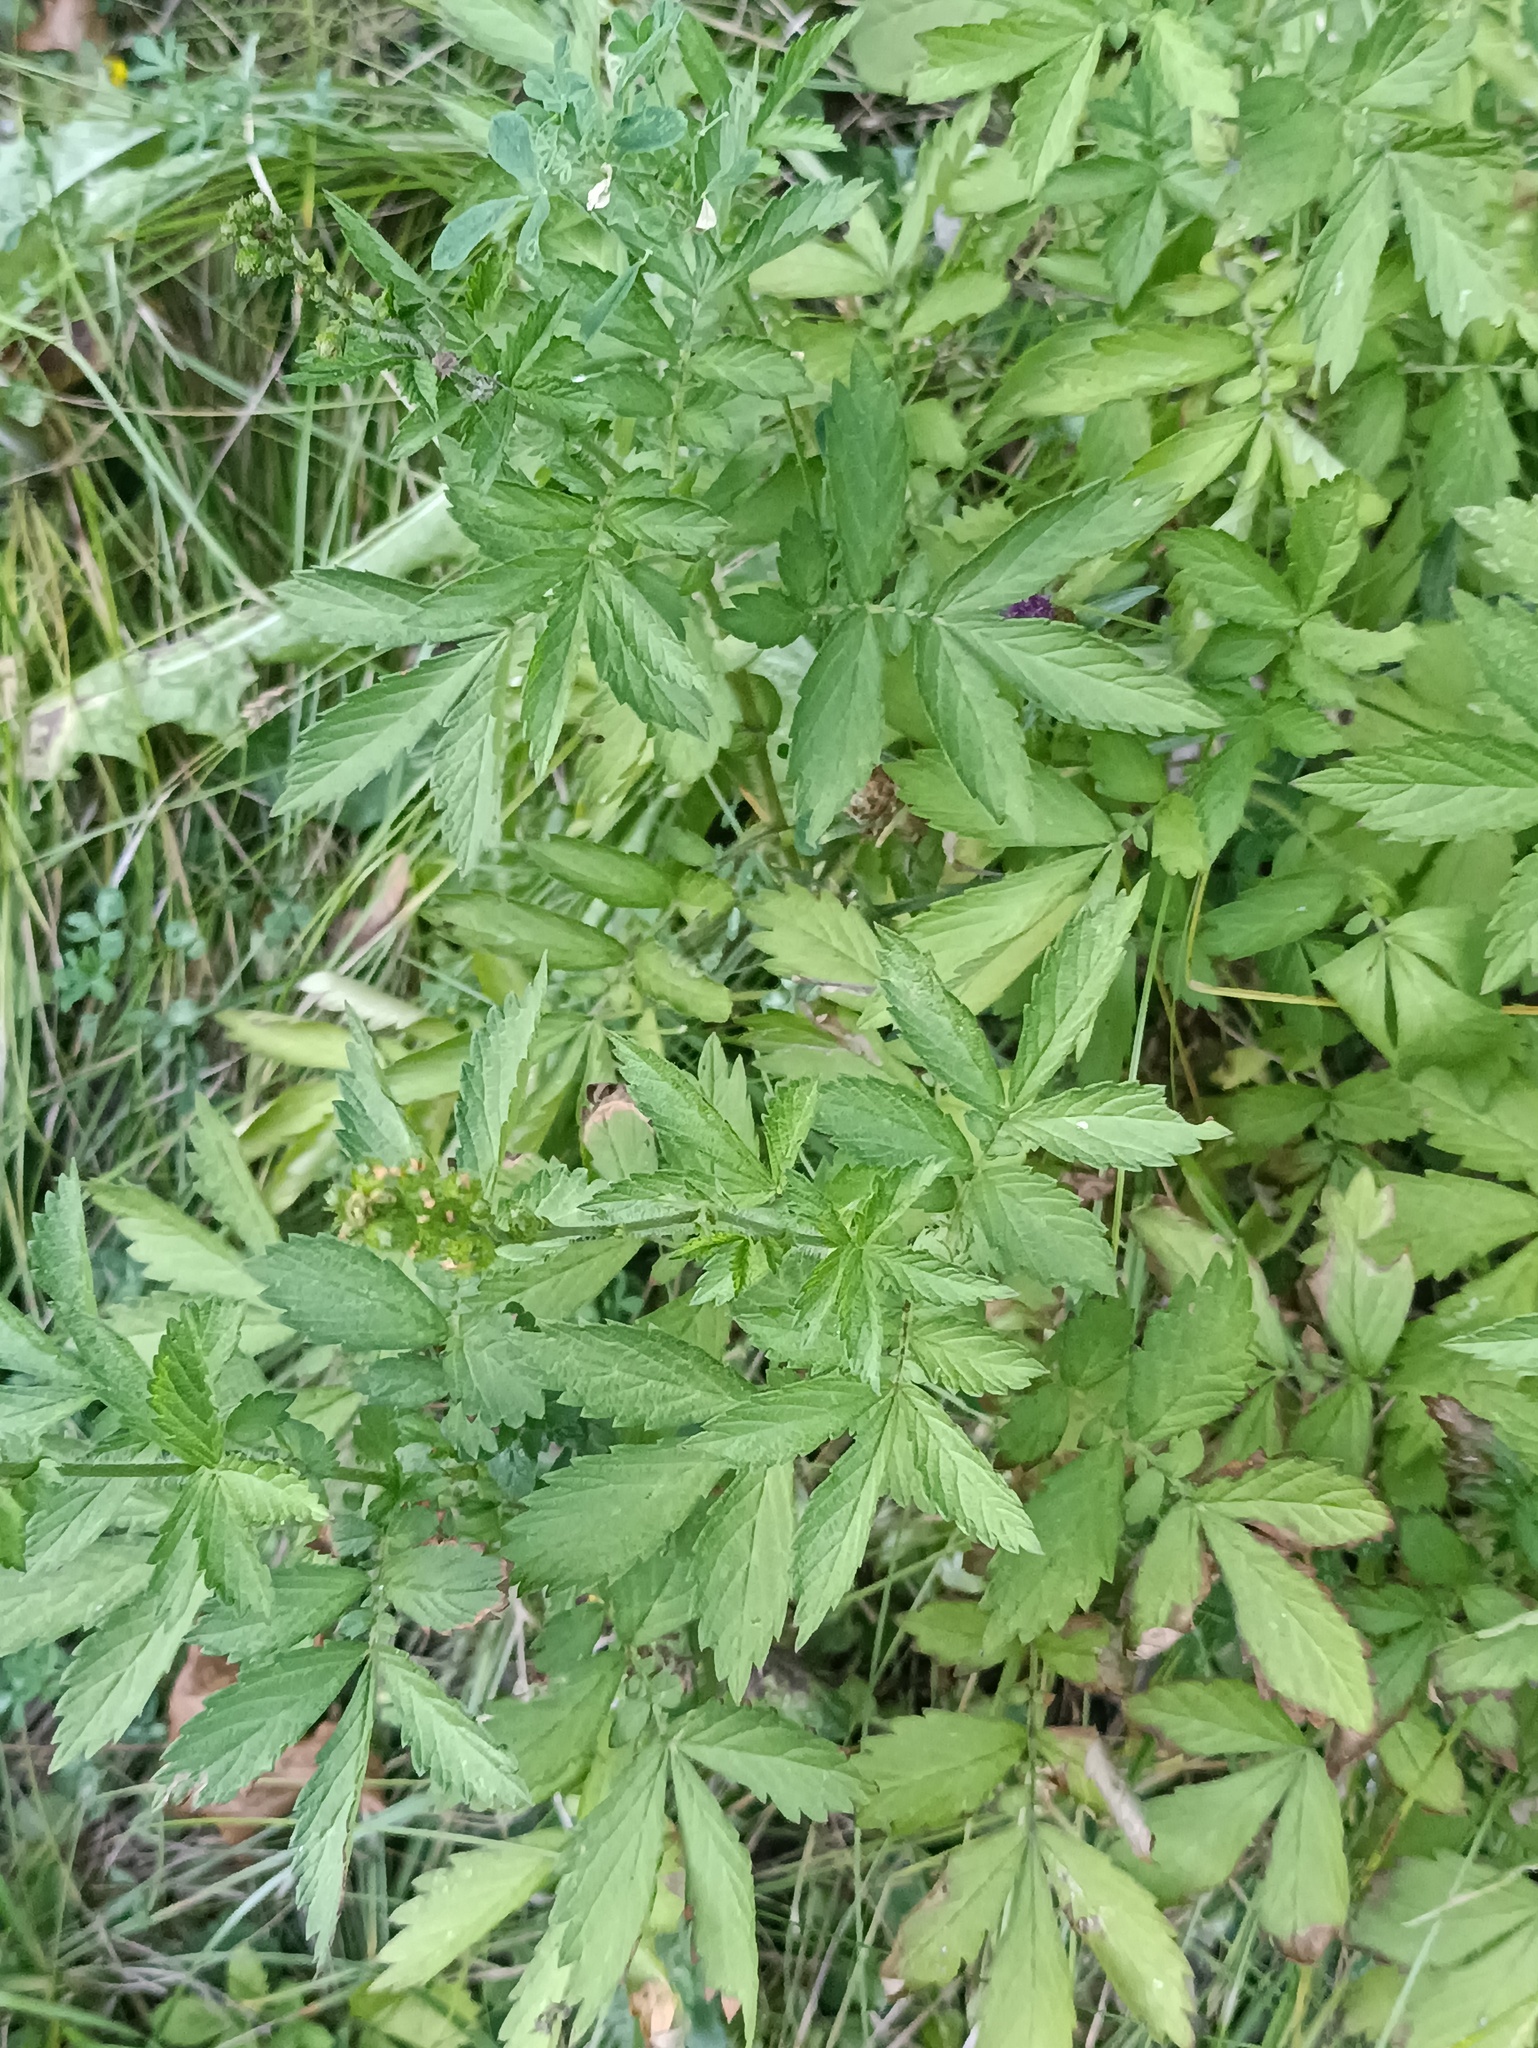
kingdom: Plantae
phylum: Tracheophyta
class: Magnoliopsida
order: Rosales
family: Rosaceae
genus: Agrimonia
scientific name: Agrimonia pilosa
